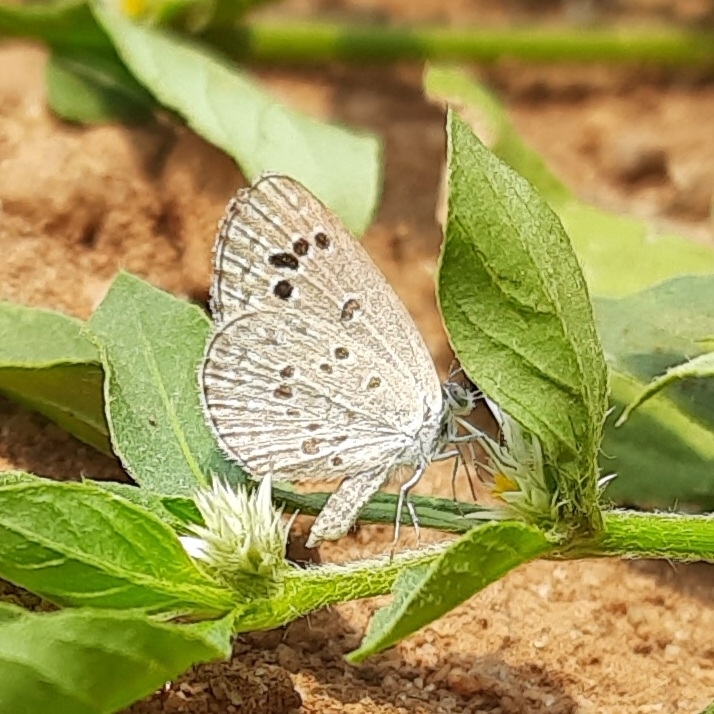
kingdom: Animalia
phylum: Arthropoda
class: Insecta
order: Lepidoptera
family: Lycaenidae
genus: Zizina
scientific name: Zizina otis
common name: Lesser grass blue
